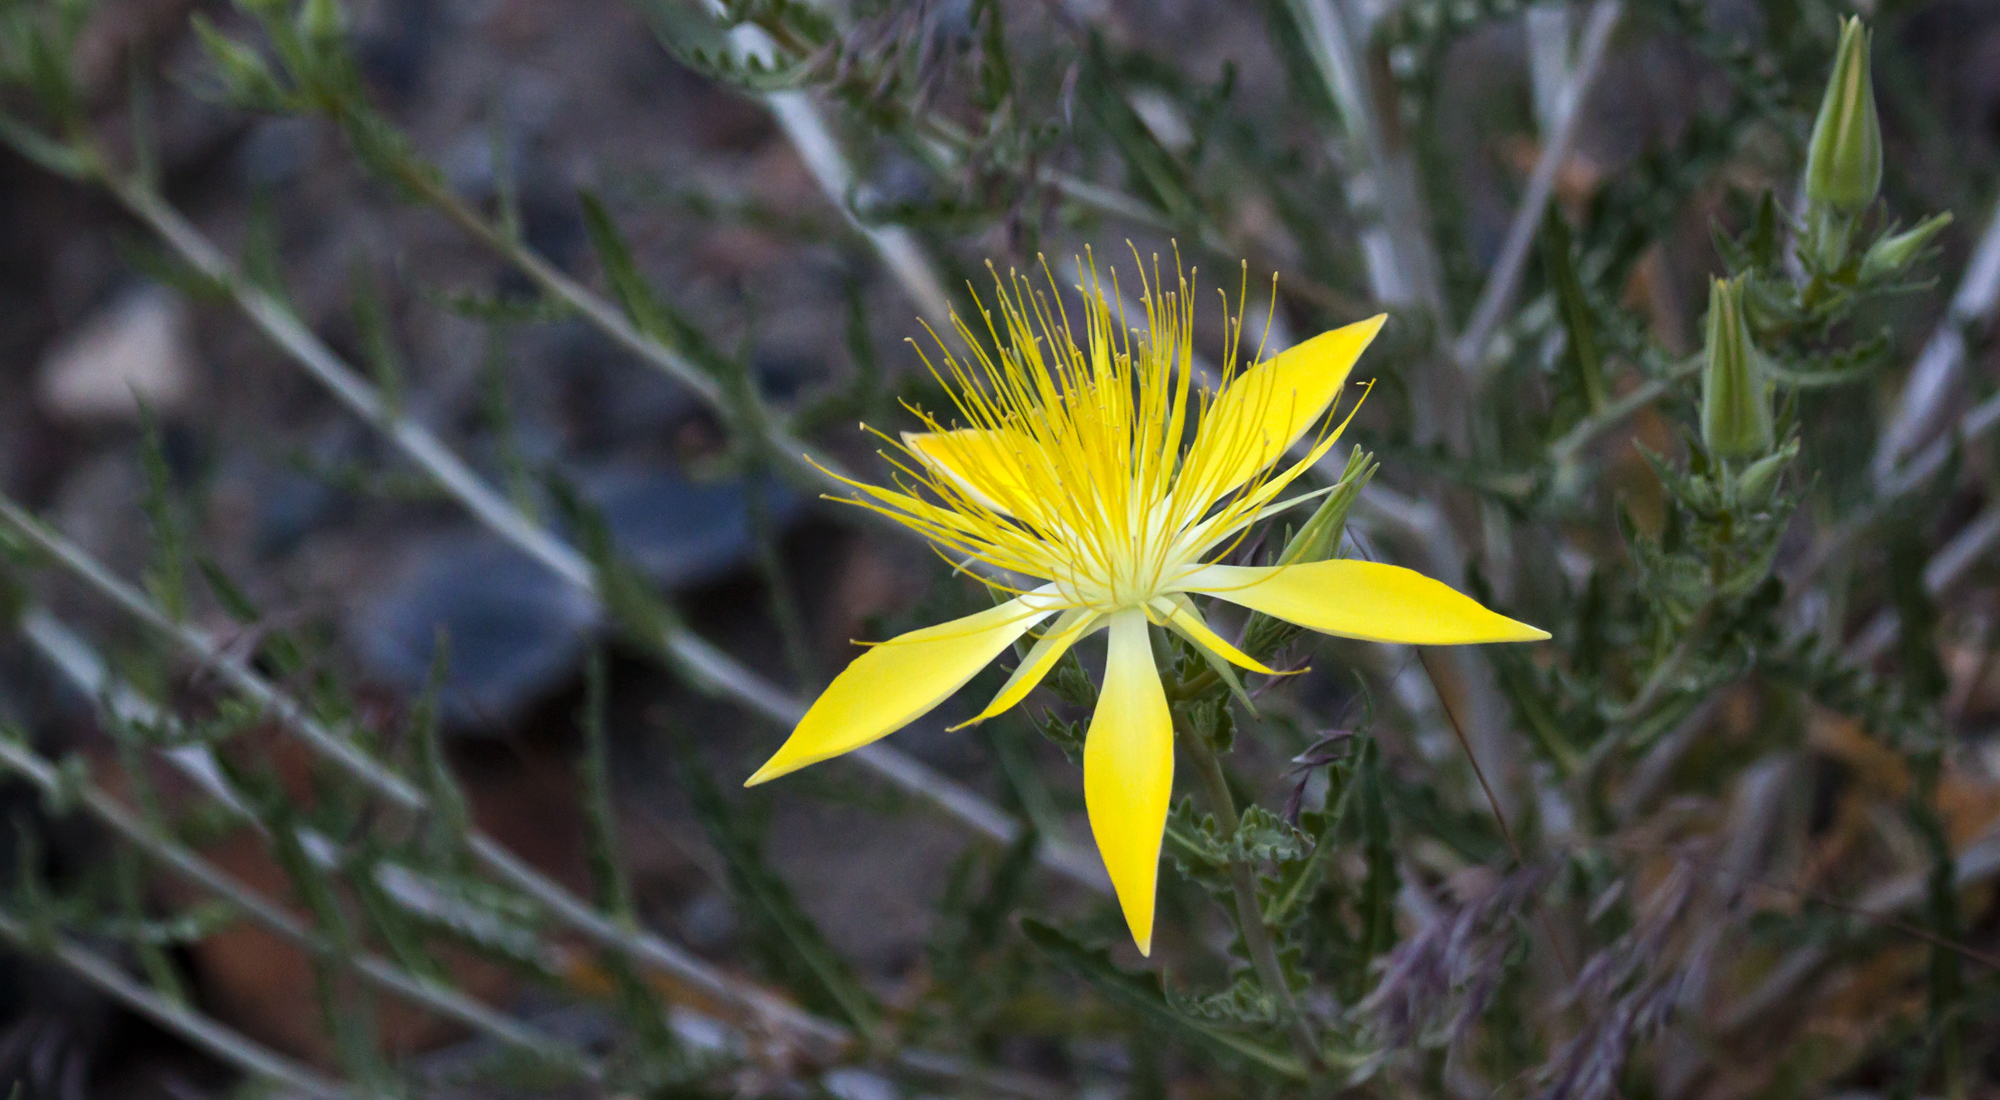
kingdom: Plantae
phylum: Tracheophyta
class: Magnoliopsida
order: Cornales
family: Loasaceae
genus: Mentzelia
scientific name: Mentzelia laevicaulis
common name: Smooth-stem blazingstar
